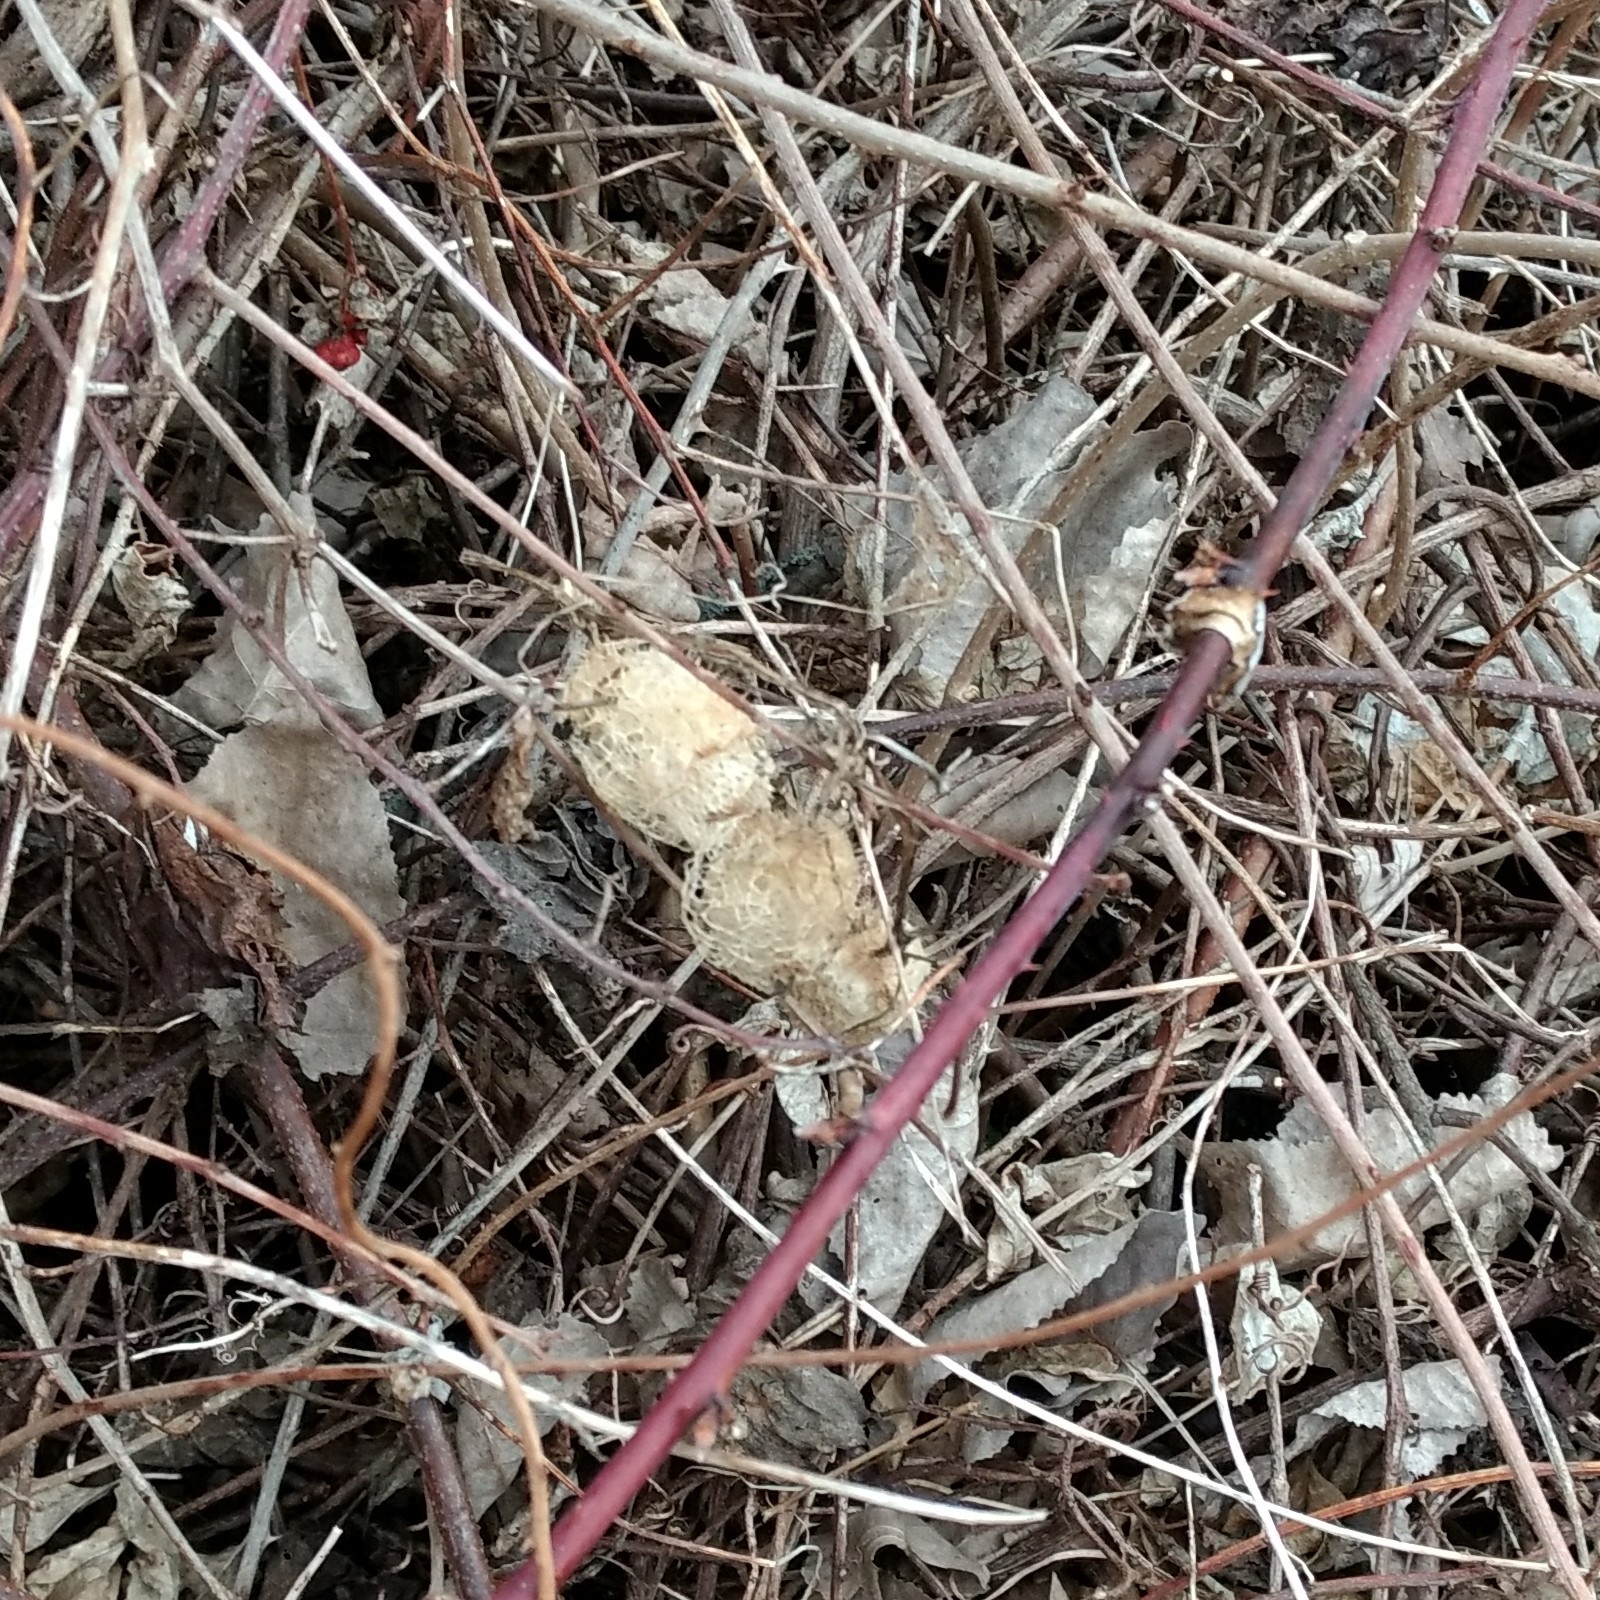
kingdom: Plantae
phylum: Tracheophyta
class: Magnoliopsida
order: Cucurbitales
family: Cucurbitaceae
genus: Echinocystis
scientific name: Echinocystis lobata
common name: Wild cucumber
